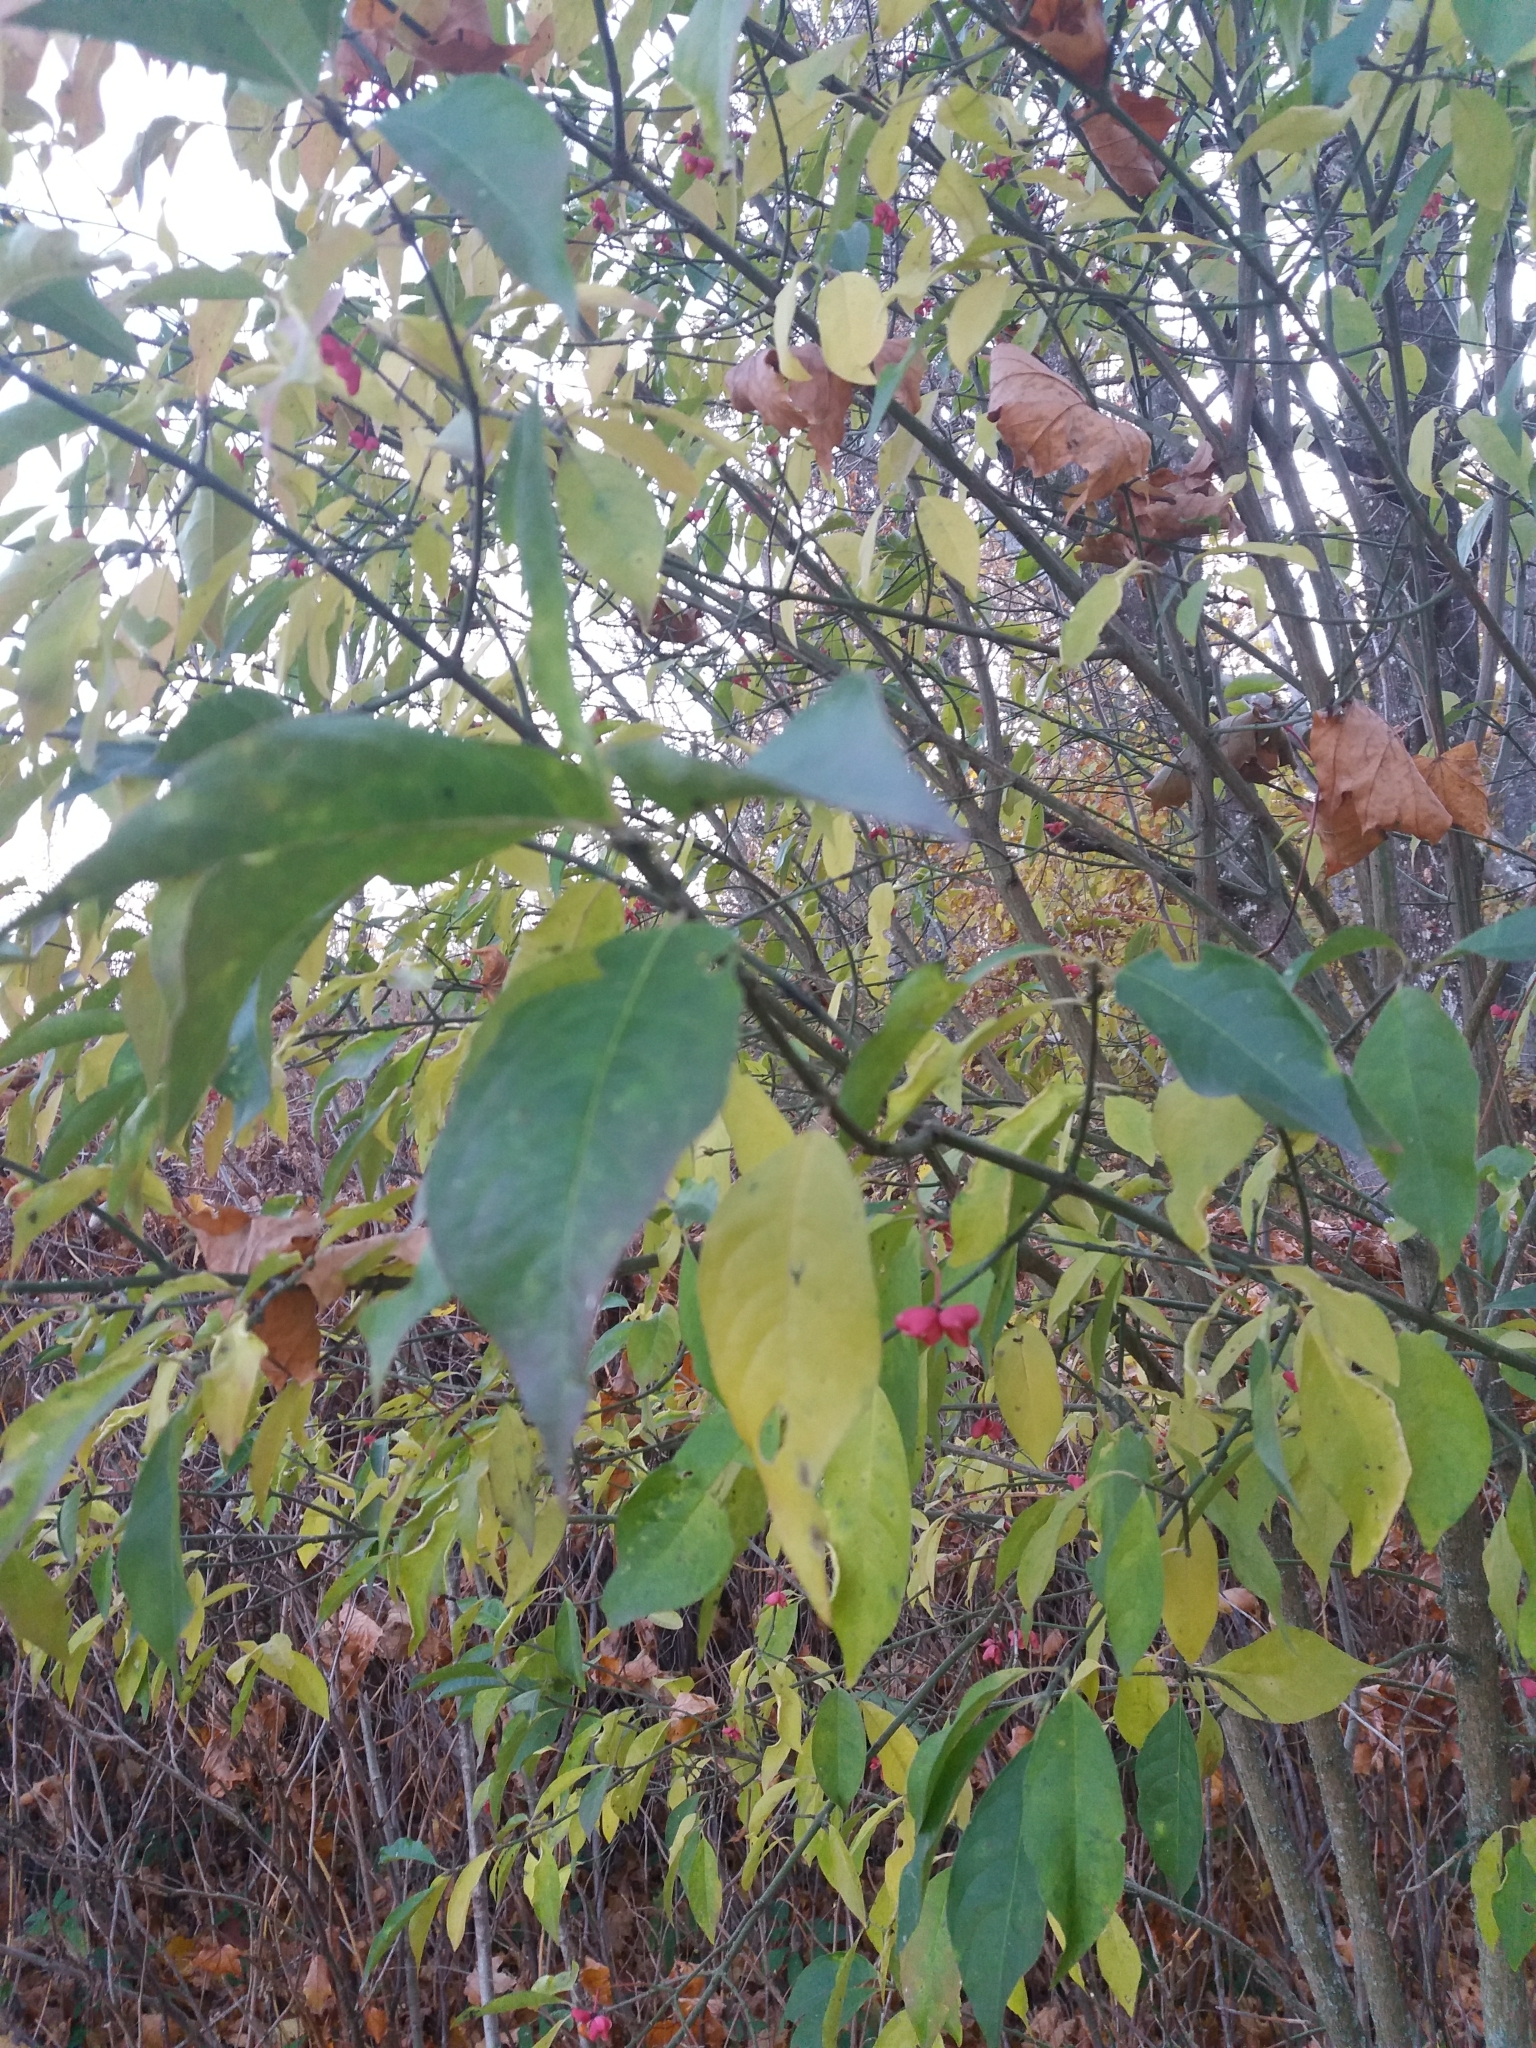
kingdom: Plantae
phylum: Tracheophyta
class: Magnoliopsida
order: Celastrales
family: Celastraceae
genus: Euonymus
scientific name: Euonymus europaeus
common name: Spindle
